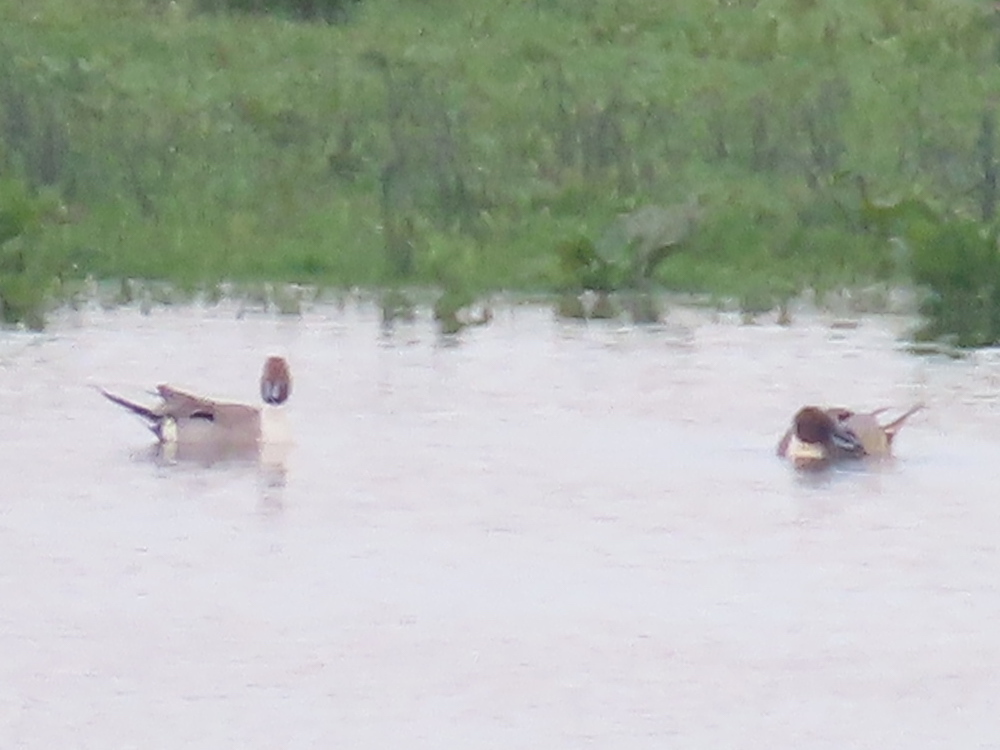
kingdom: Animalia
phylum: Chordata
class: Aves
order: Anseriformes
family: Anatidae
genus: Anas
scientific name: Anas acuta
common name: Northern pintail
